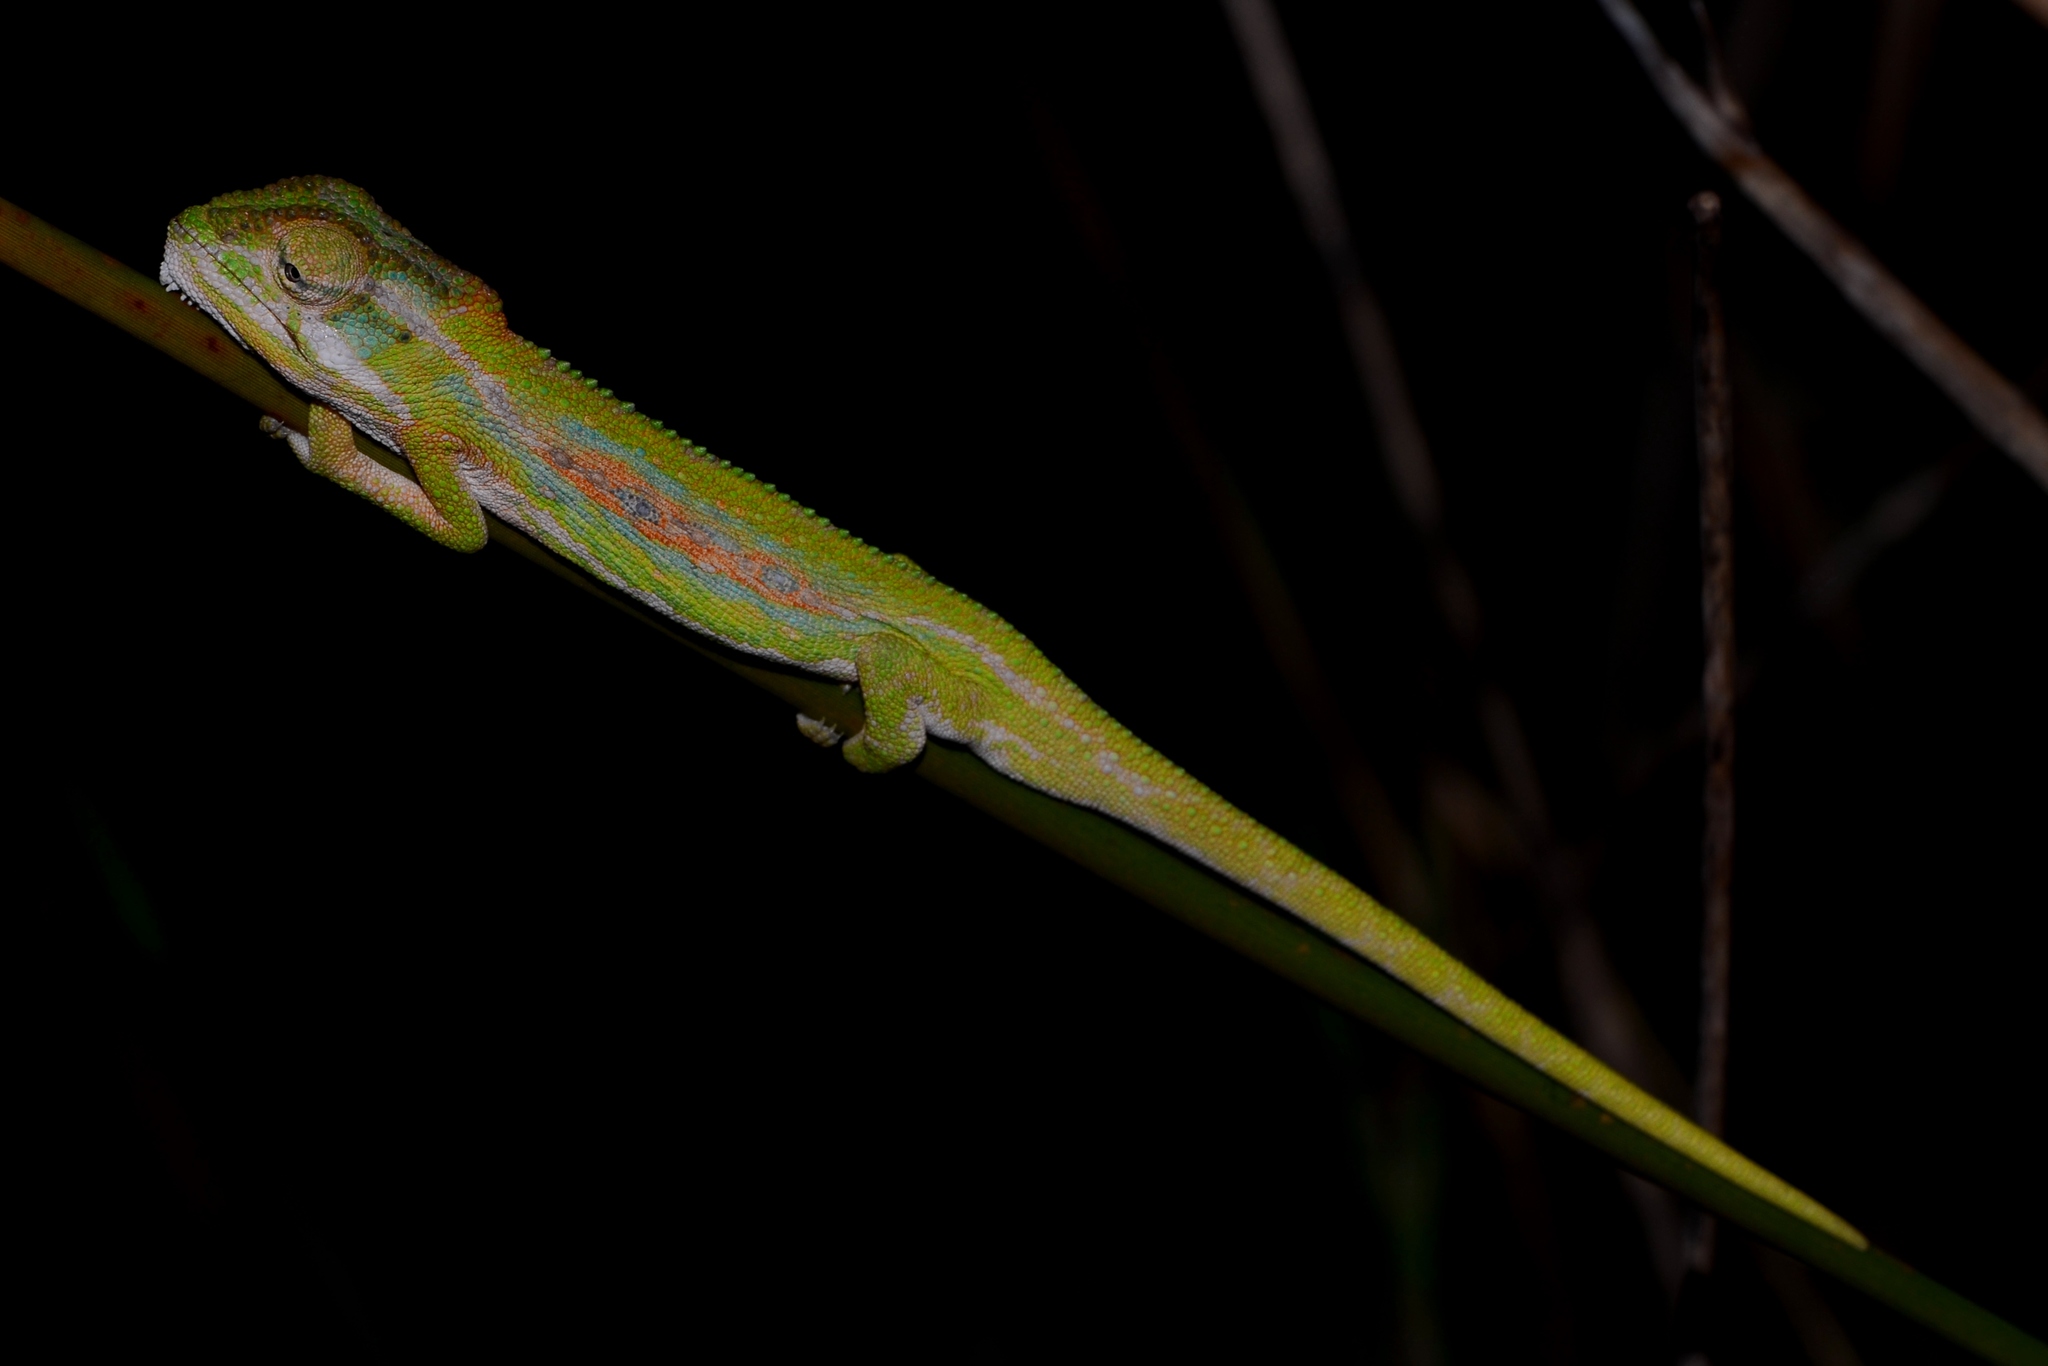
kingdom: Animalia
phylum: Chordata
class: Squamata
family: Chamaeleonidae
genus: Bradypodion
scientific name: Bradypodion pumilum
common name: Cape dwarf chameleon
